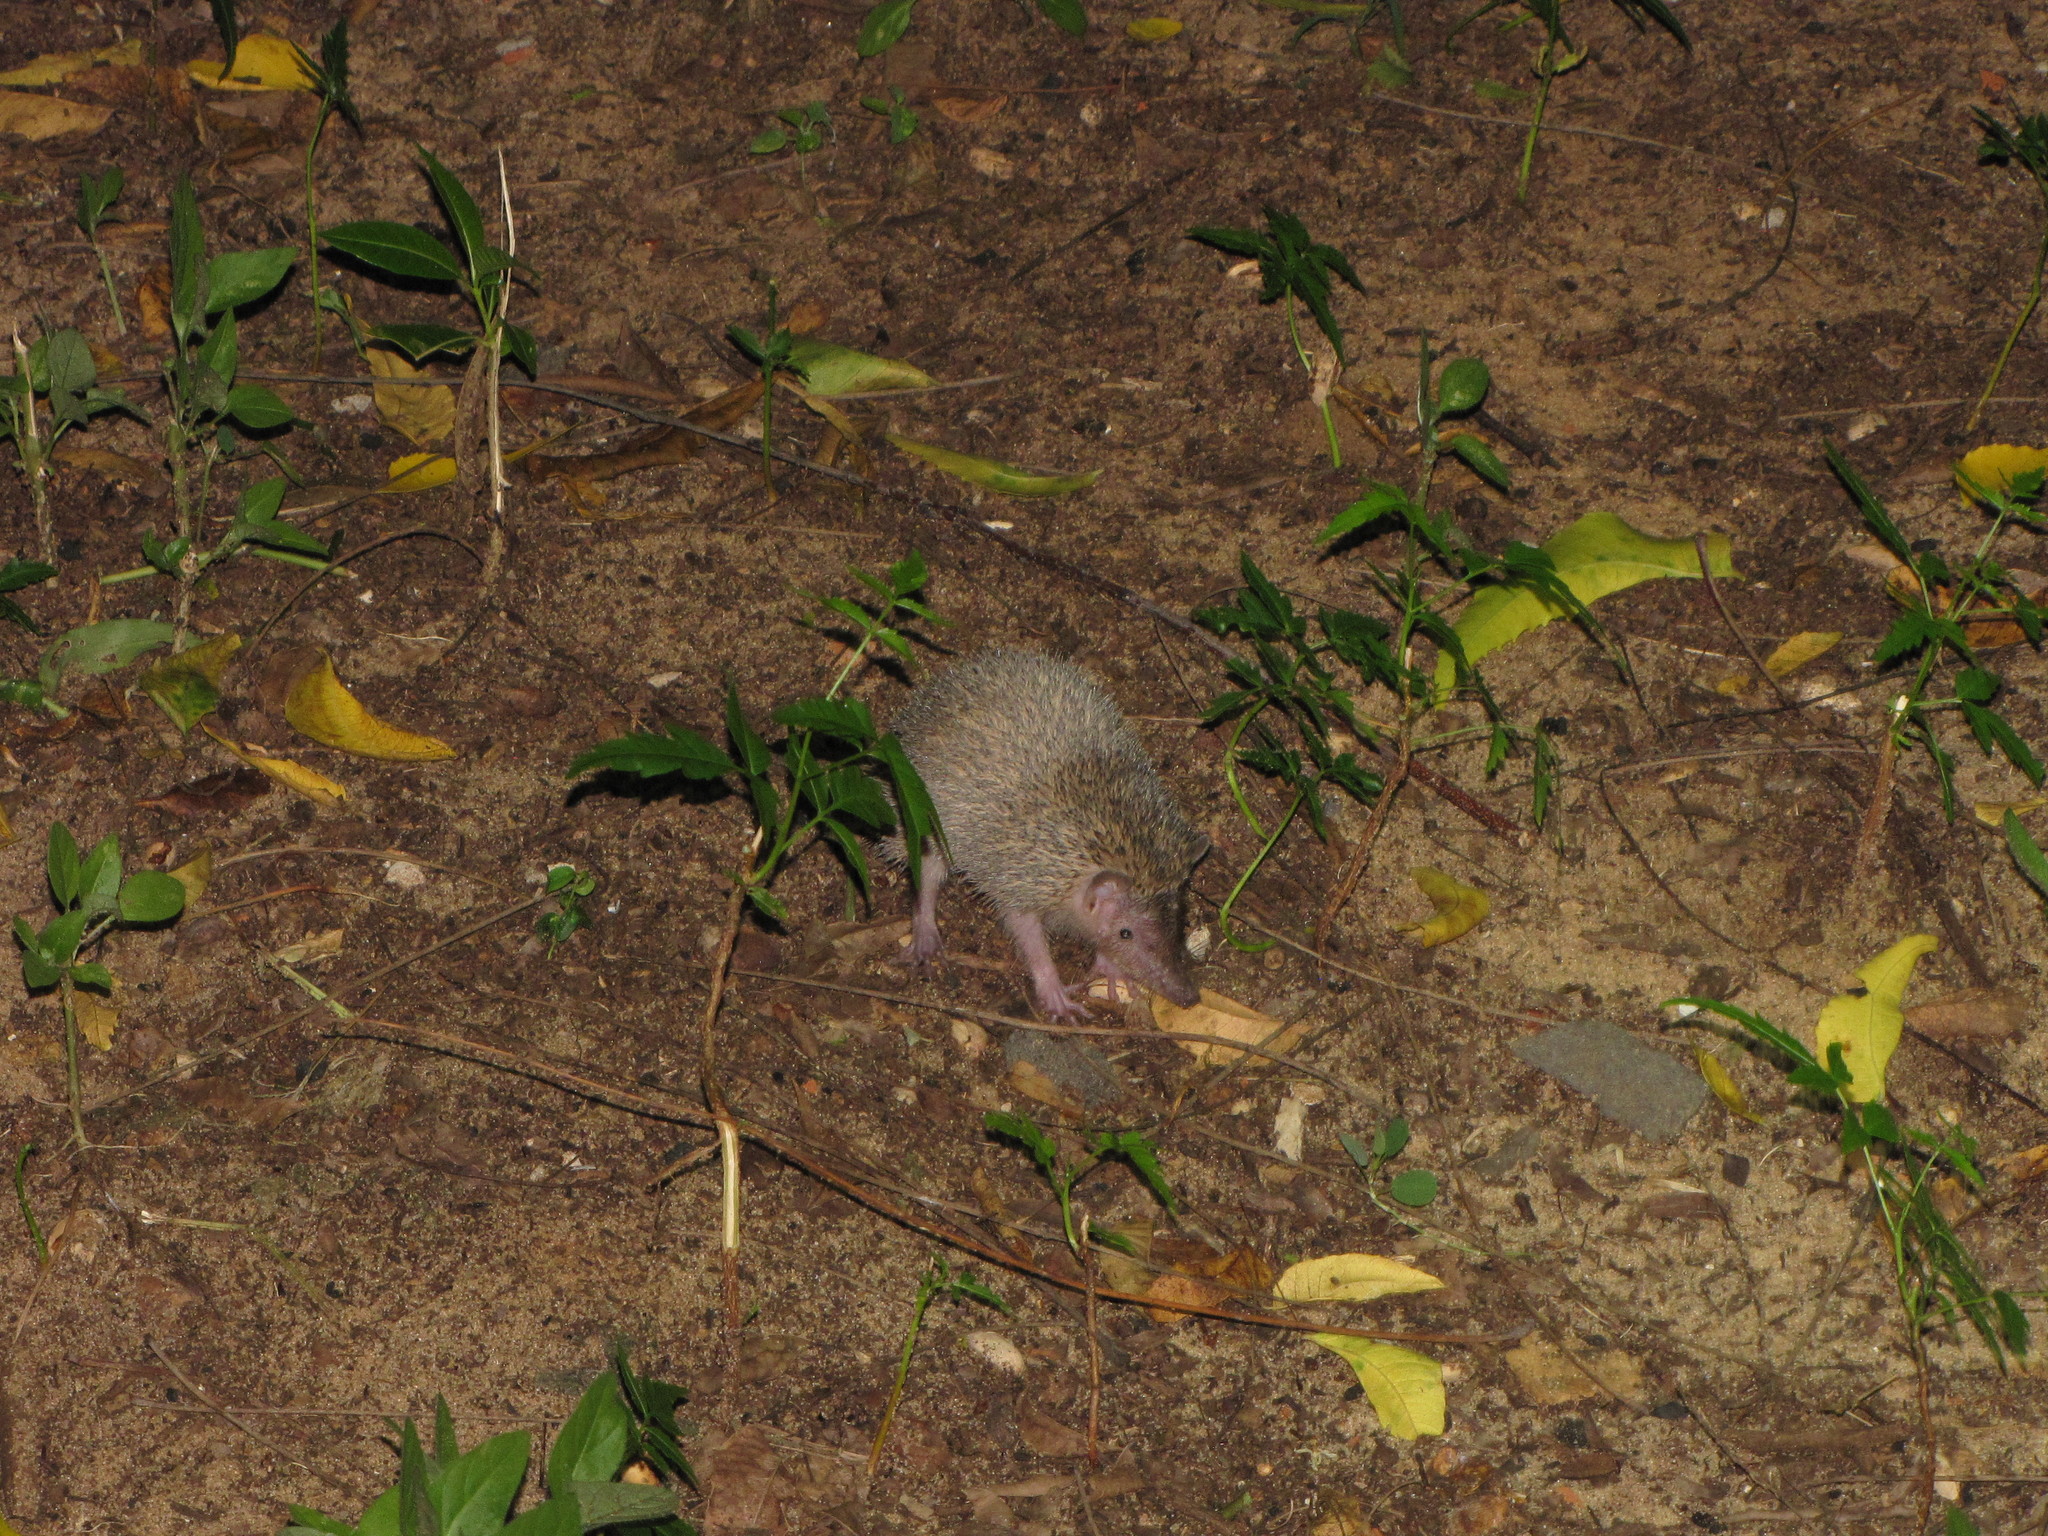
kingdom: Animalia
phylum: Chordata
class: Mammalia
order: Afrosoricida
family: Tenrecidae
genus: Setifer
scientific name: Setifer setosus
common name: Greater hedgehog tenrec
